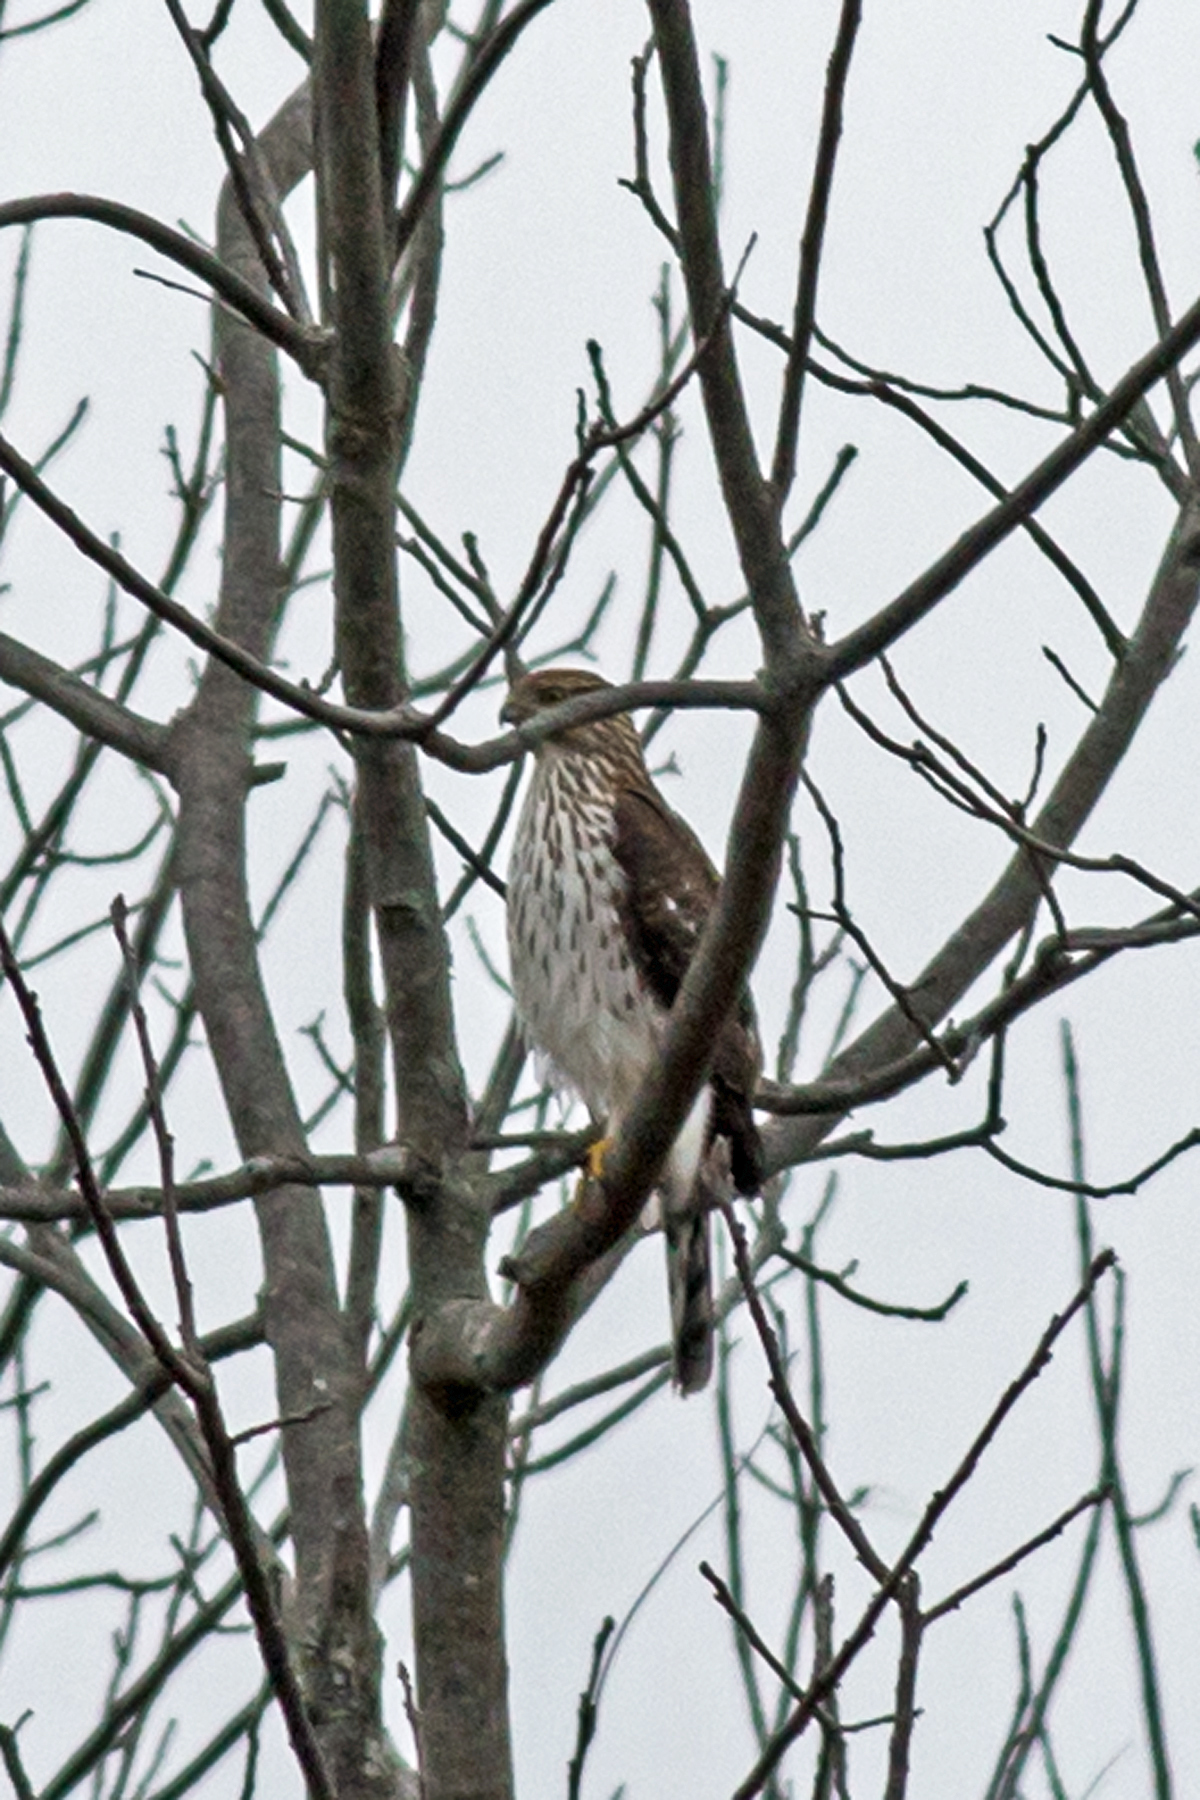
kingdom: Animalia
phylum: Chordata
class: Aves
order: Accipitriformes
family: Accipitridae
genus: Accipiter
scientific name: Accipiter cooperii
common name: Cooper's hawk
